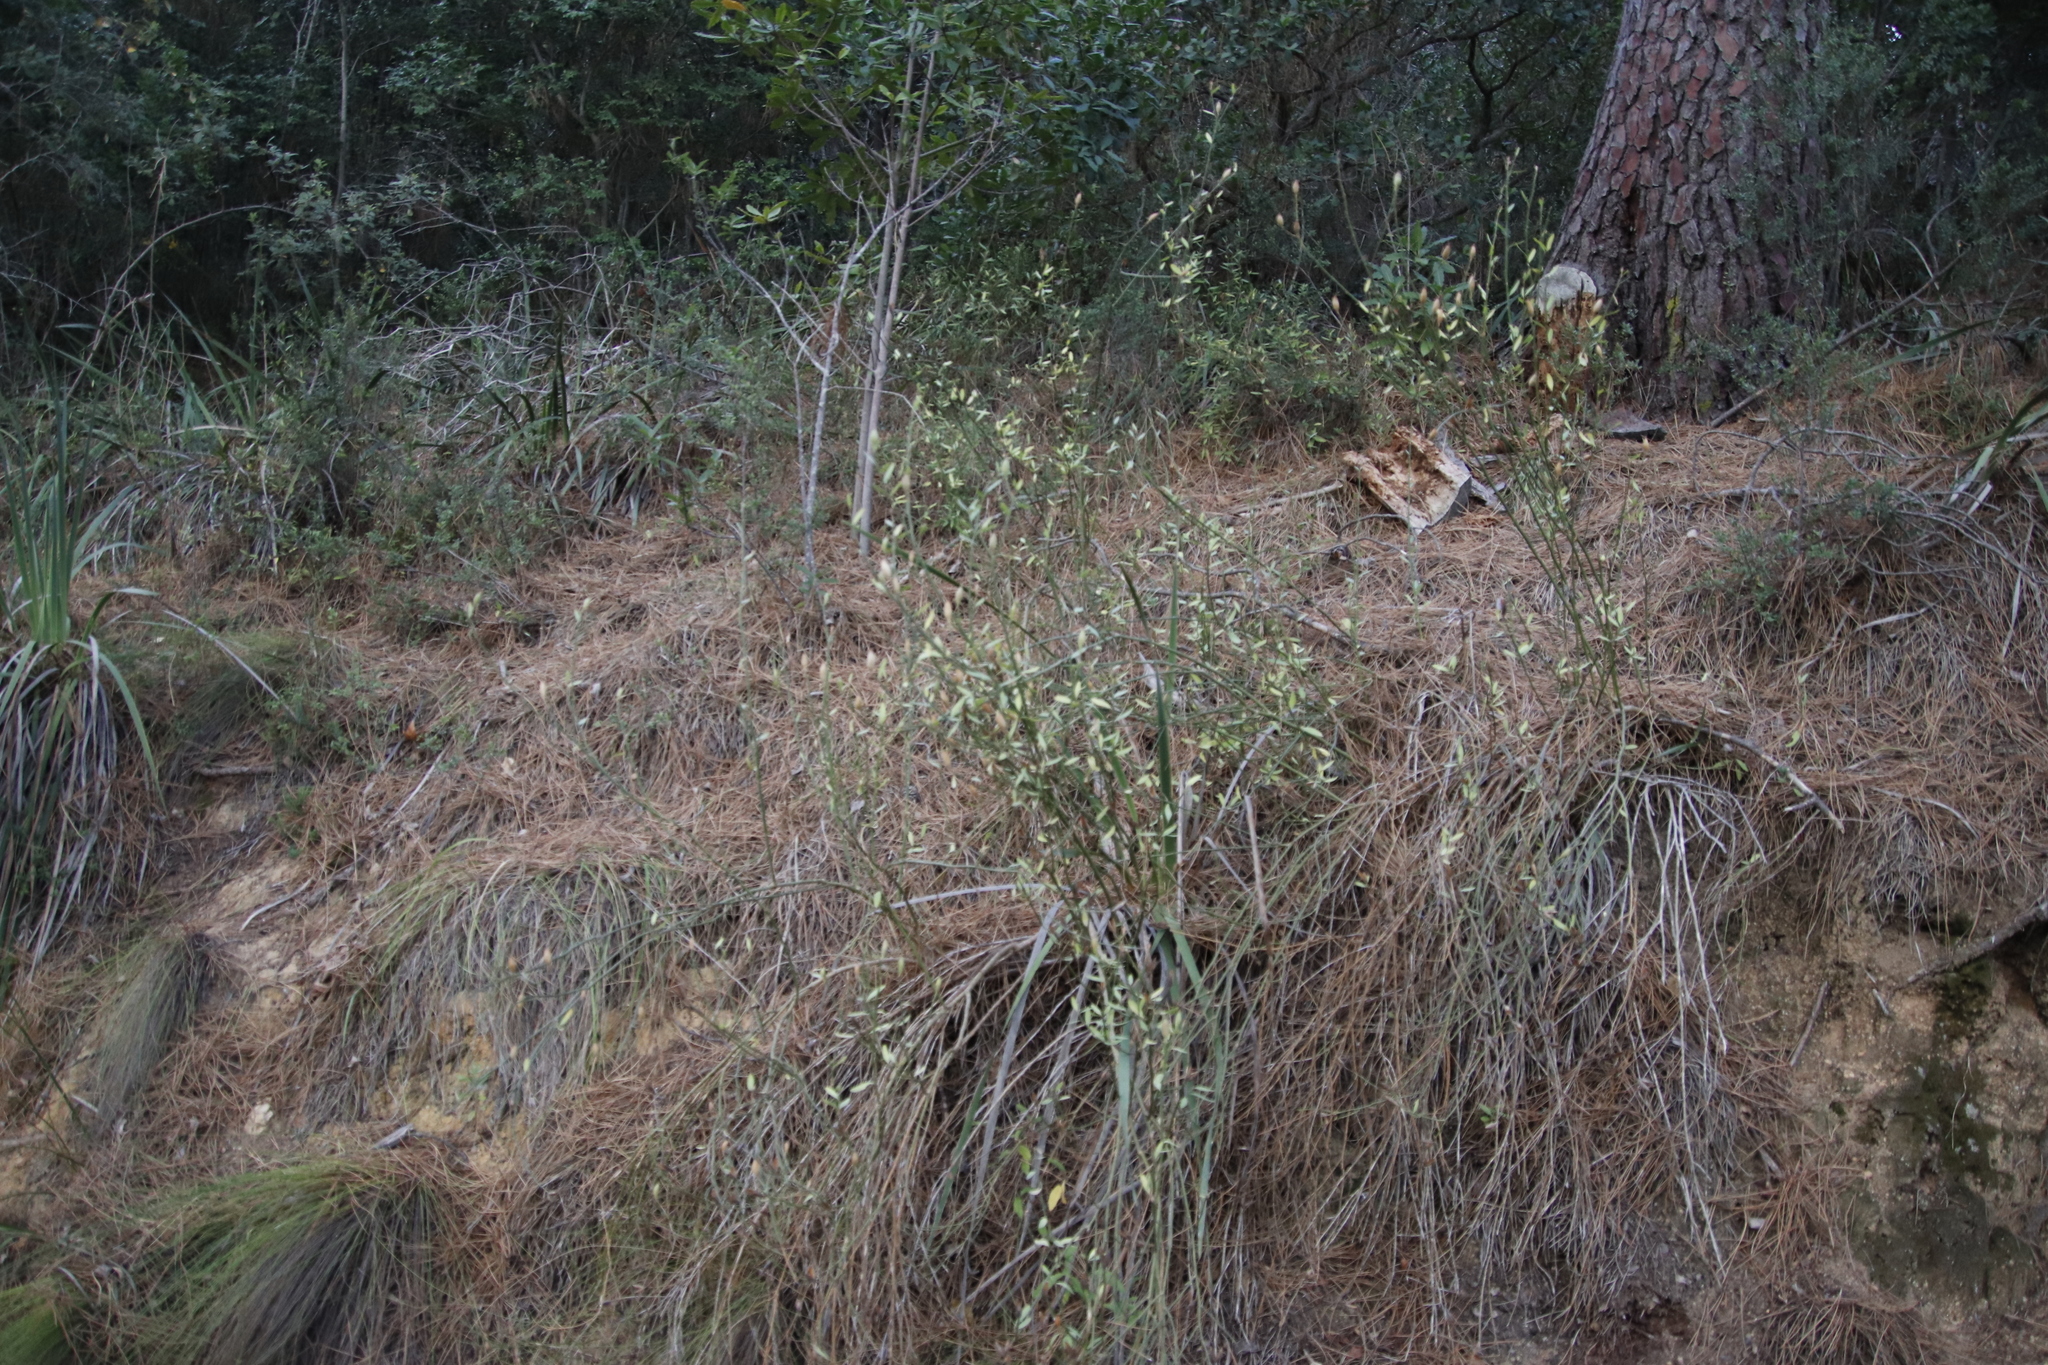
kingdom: Plantae
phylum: Tracheophyta
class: Magnoliopsida
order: Solanales
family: Montiniaceae
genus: Montinia
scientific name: Montinia caryophyllacea
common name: Wild clove-bush
